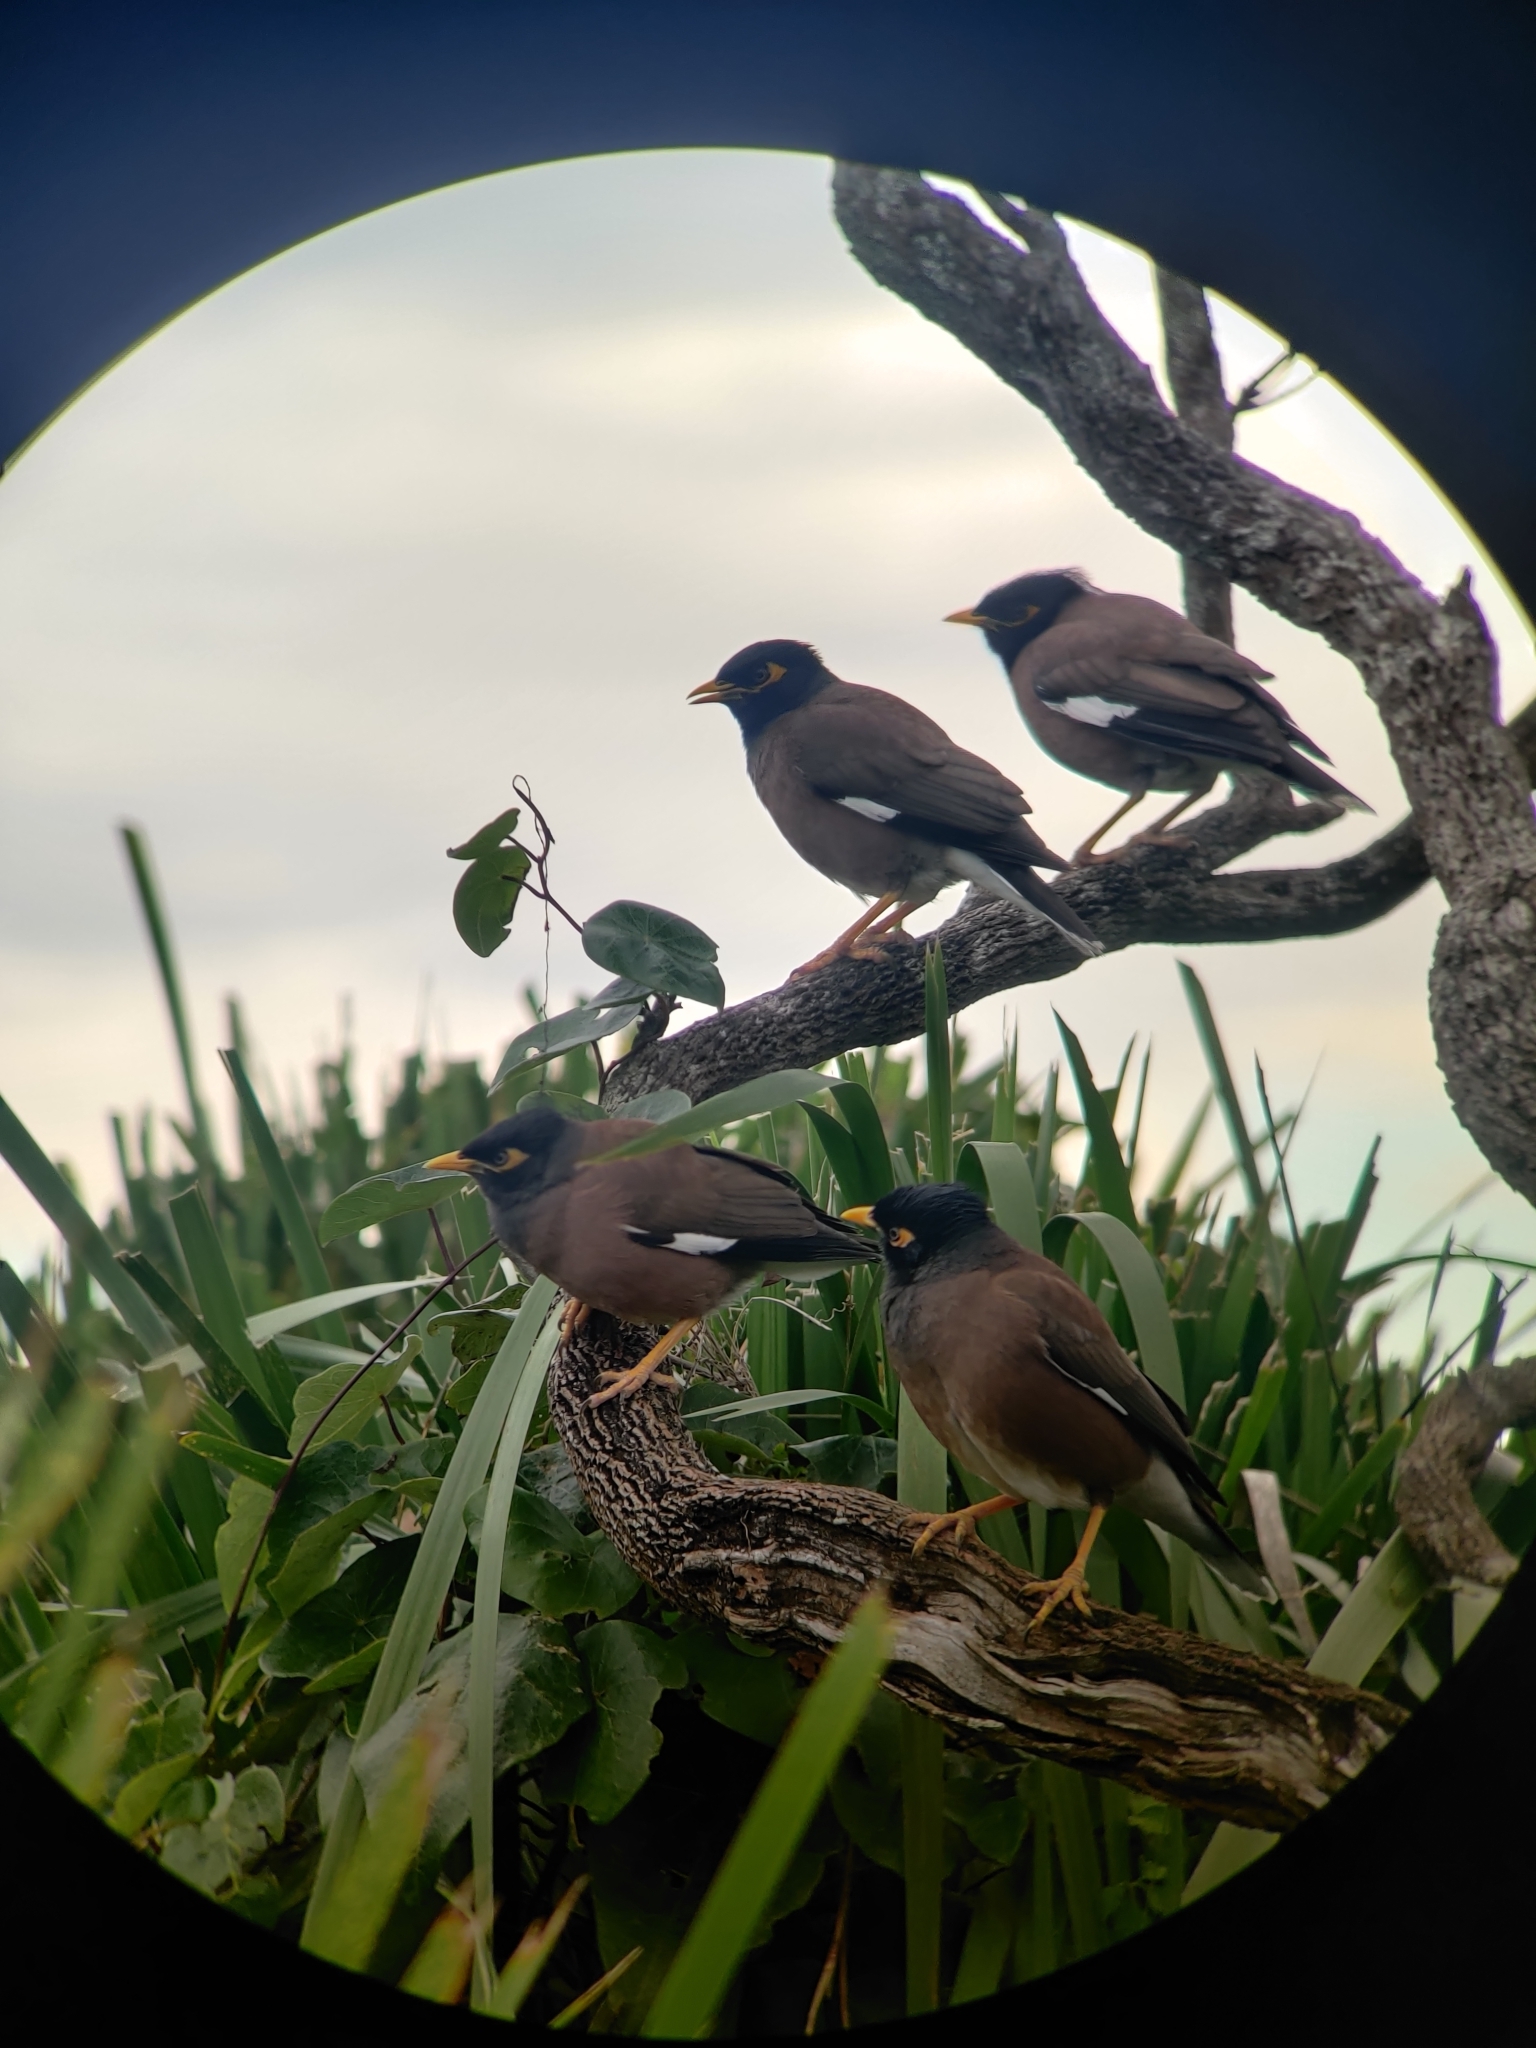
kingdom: Animalia
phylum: Chordata
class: Aves
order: Passeriformes
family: Sturnidae
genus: Acridotheres
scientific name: Acridotheres tristis
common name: Common myna
